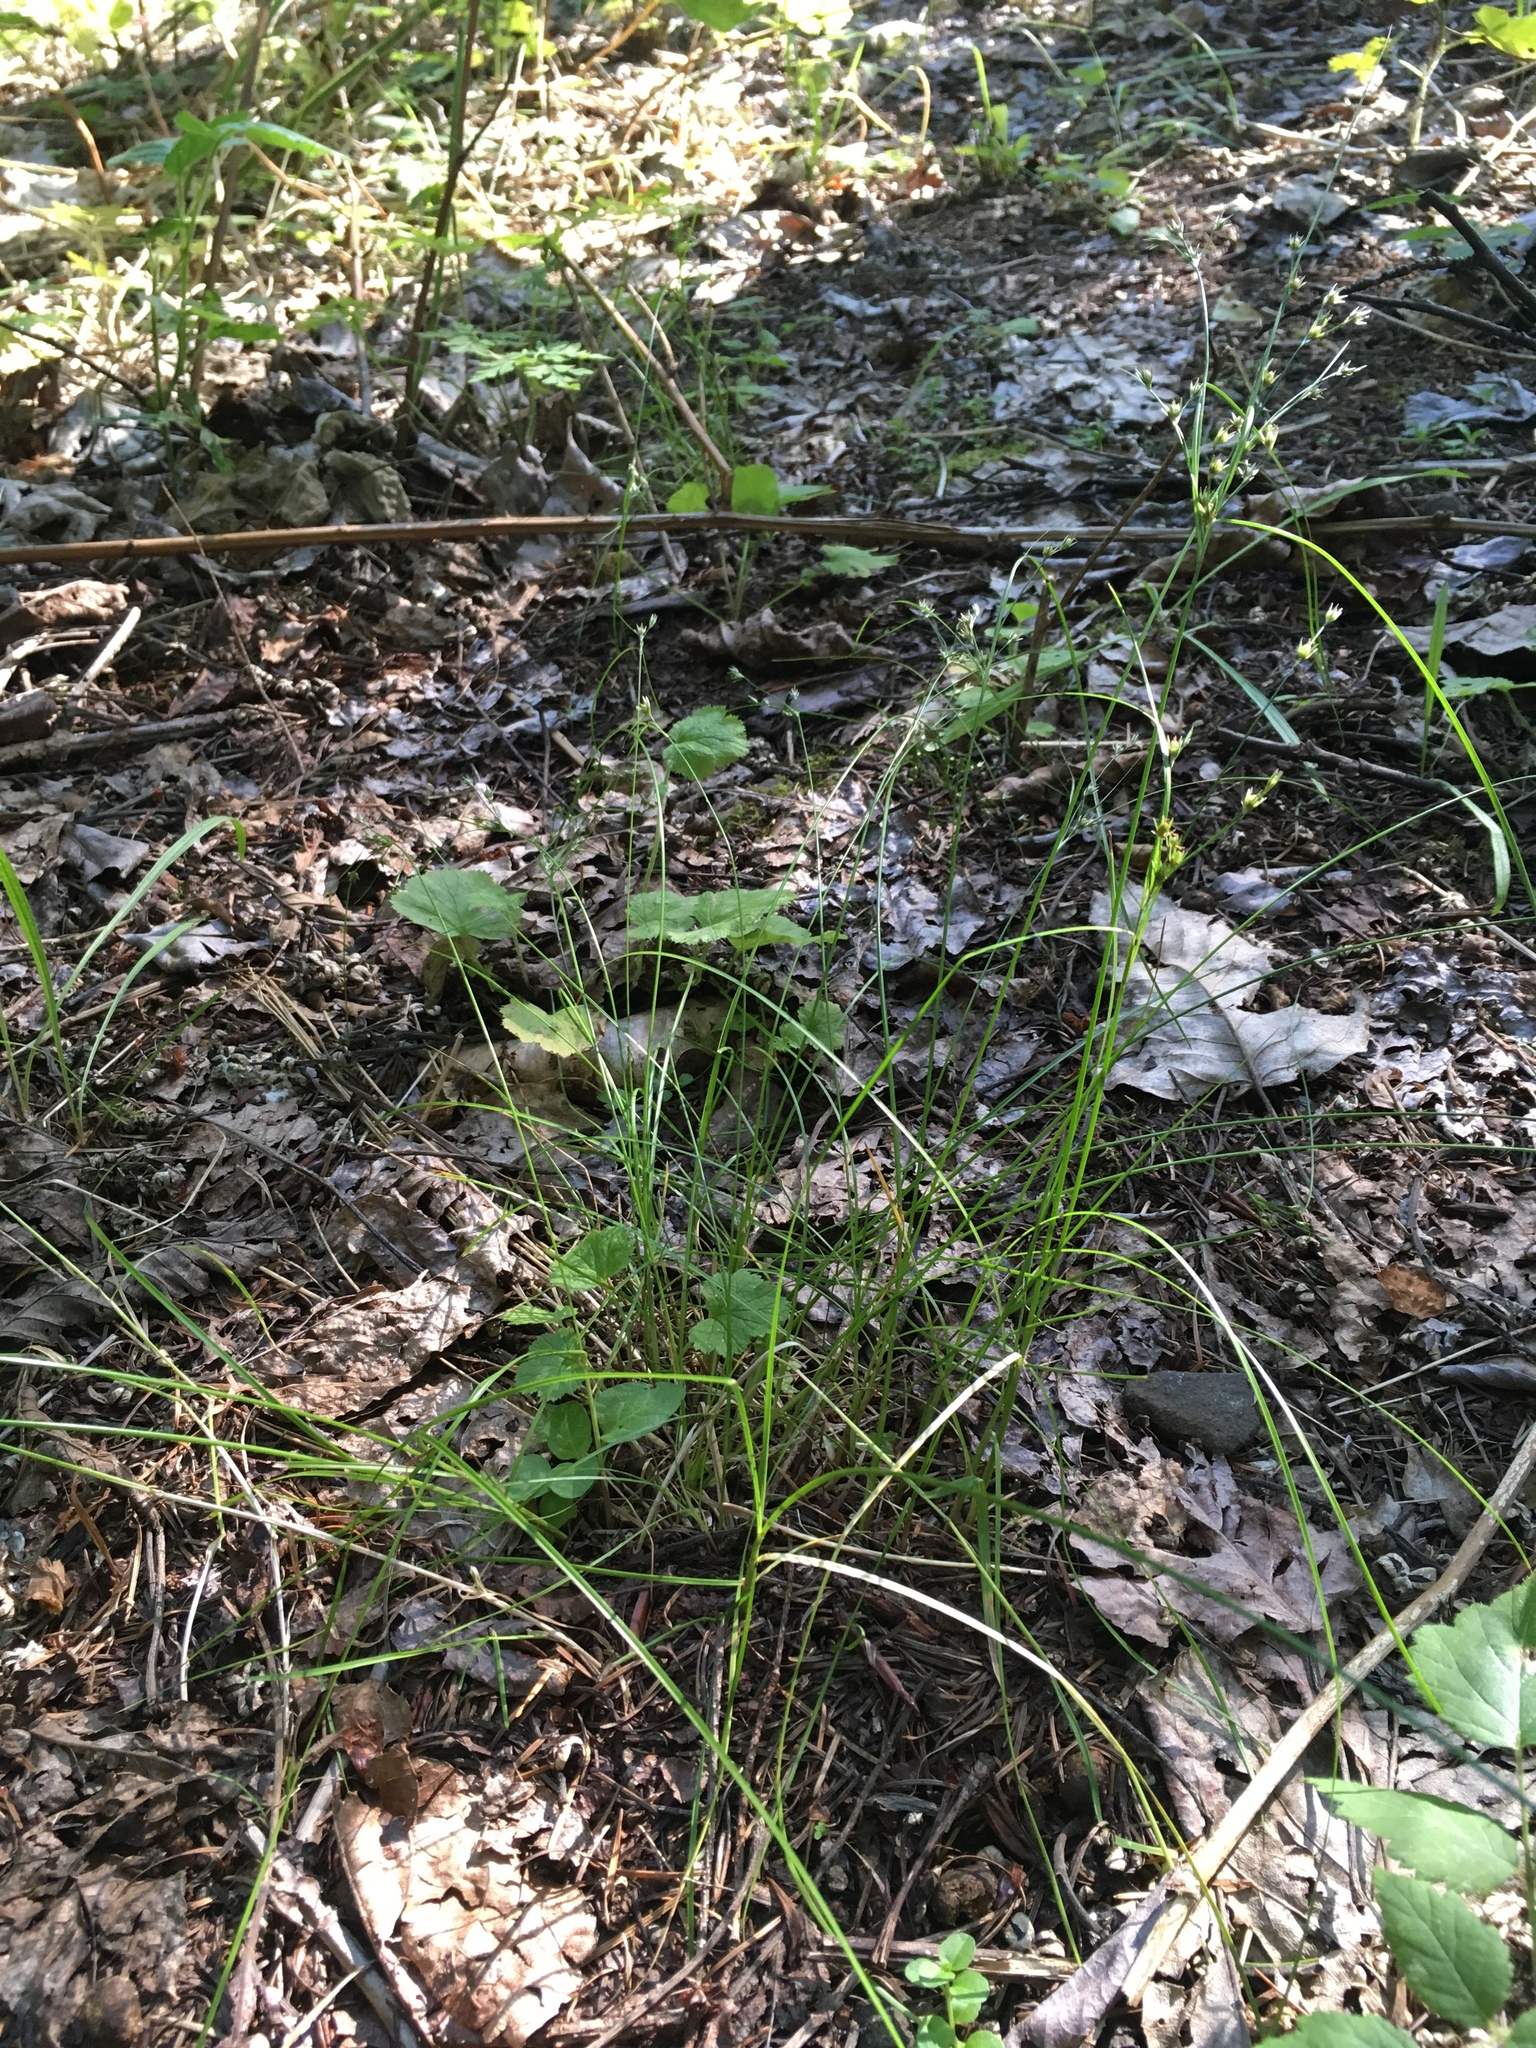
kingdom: Plantae
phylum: Tracheophyta
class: Liliopsida
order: Poales
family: Juncaceae
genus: Juncus
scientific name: Juncus tenuis
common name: Slender rush
